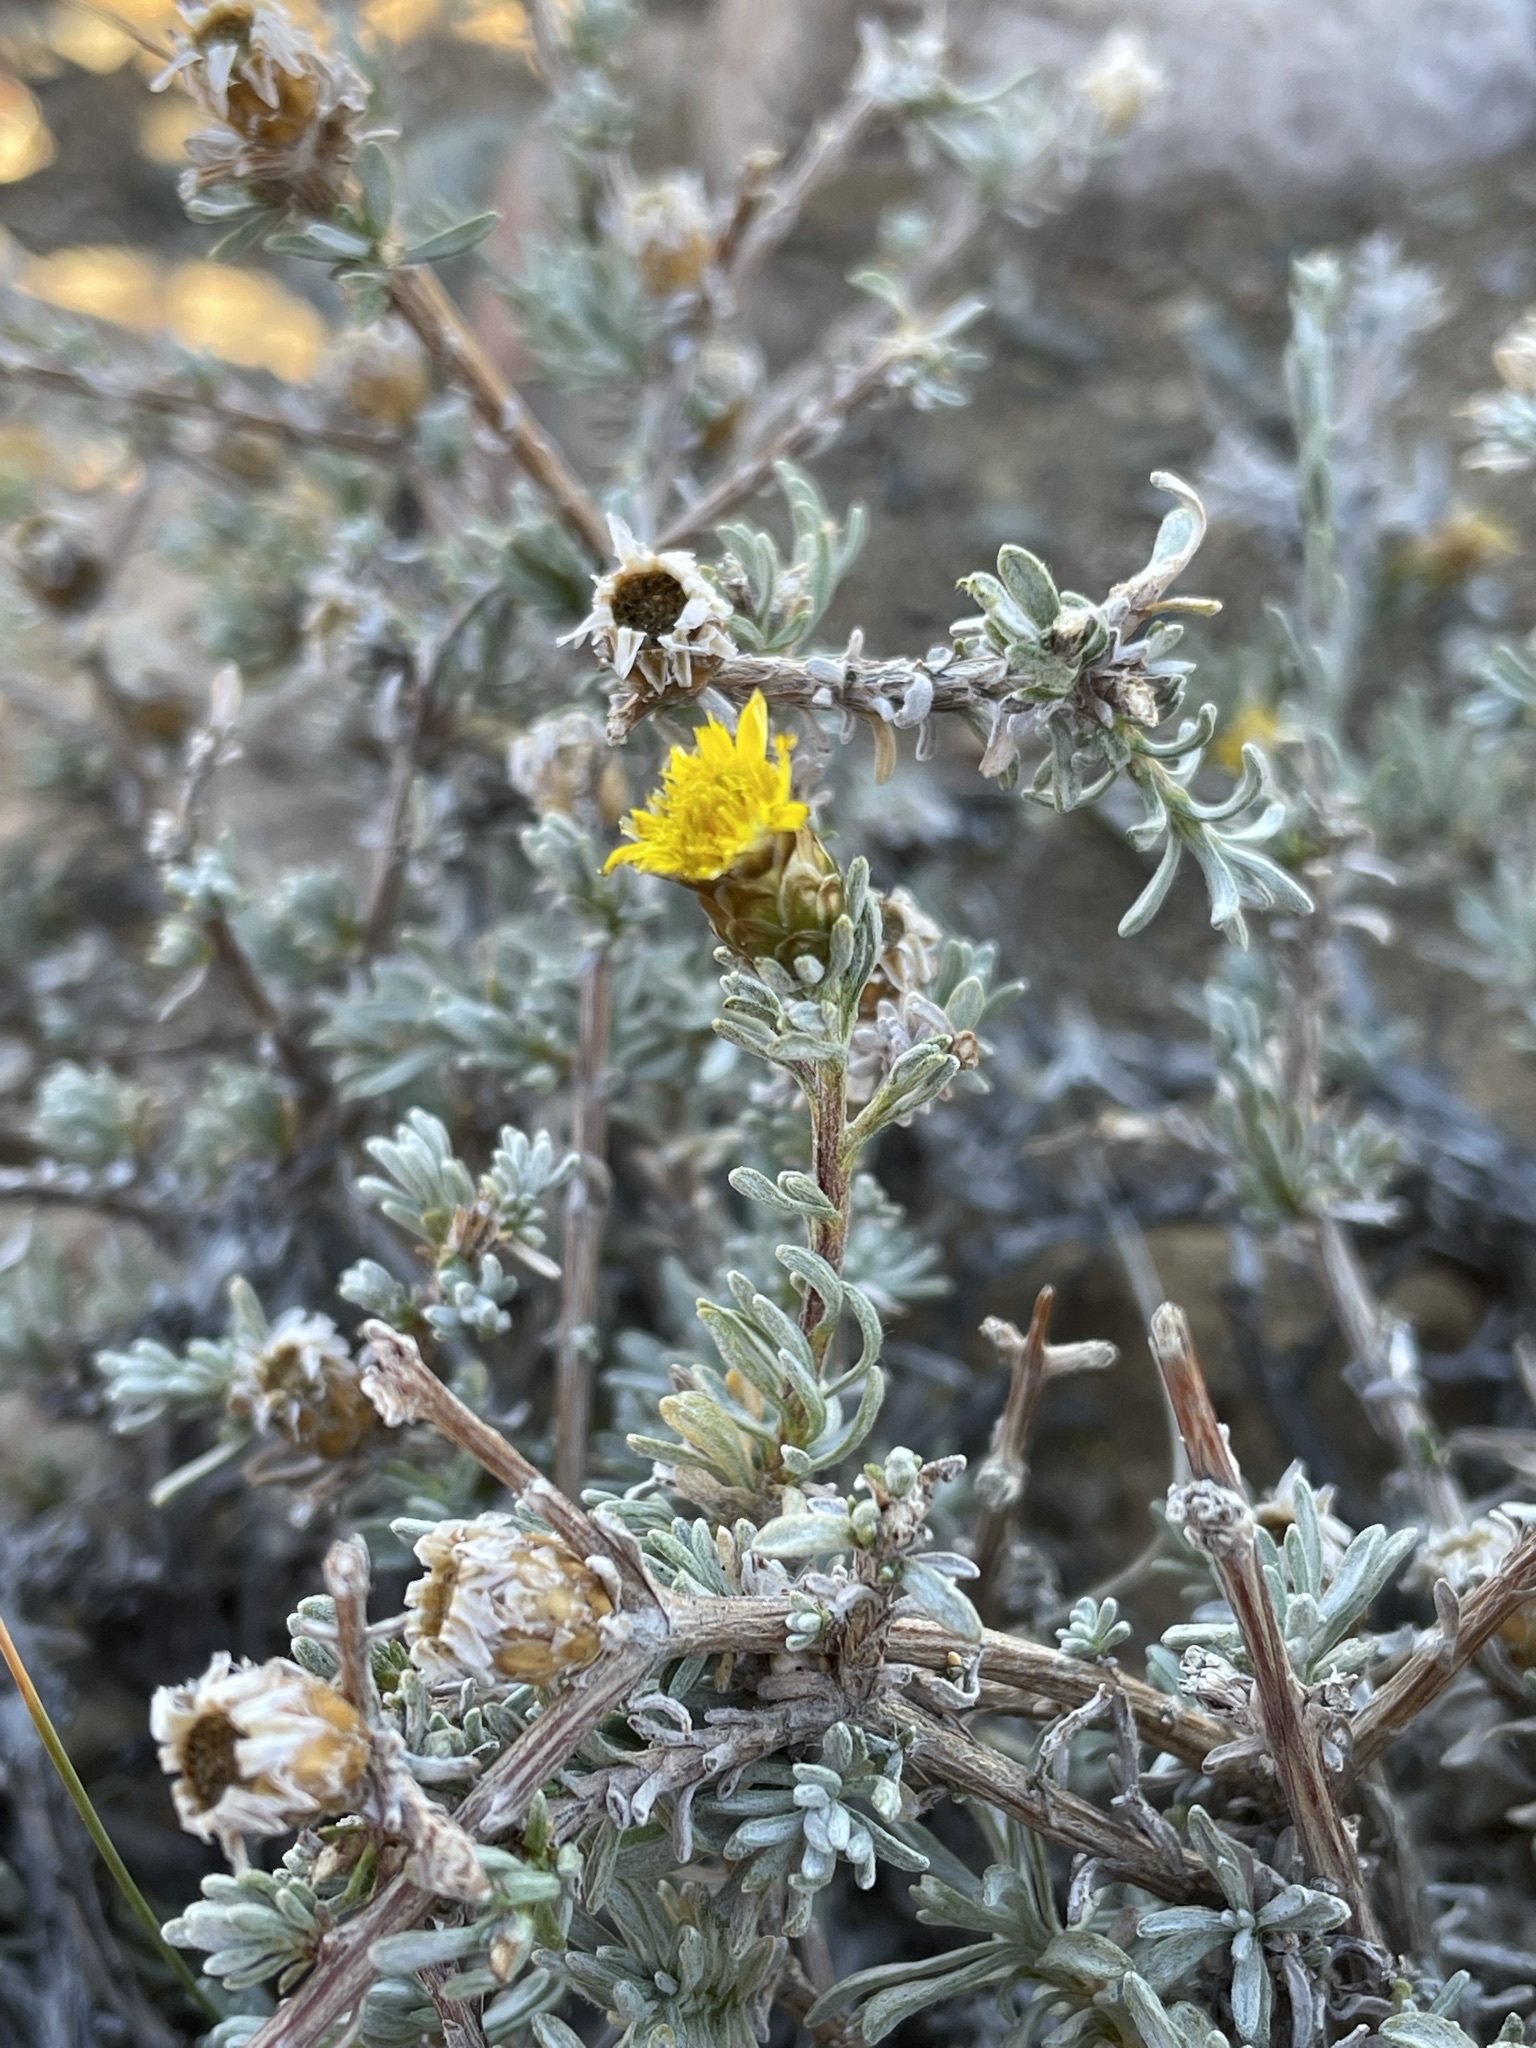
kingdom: Plantae
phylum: Tracheophyta
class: Magnoliopsida
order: Asterales
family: Asteraceae
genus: Oedera
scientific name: Oedera humilis
